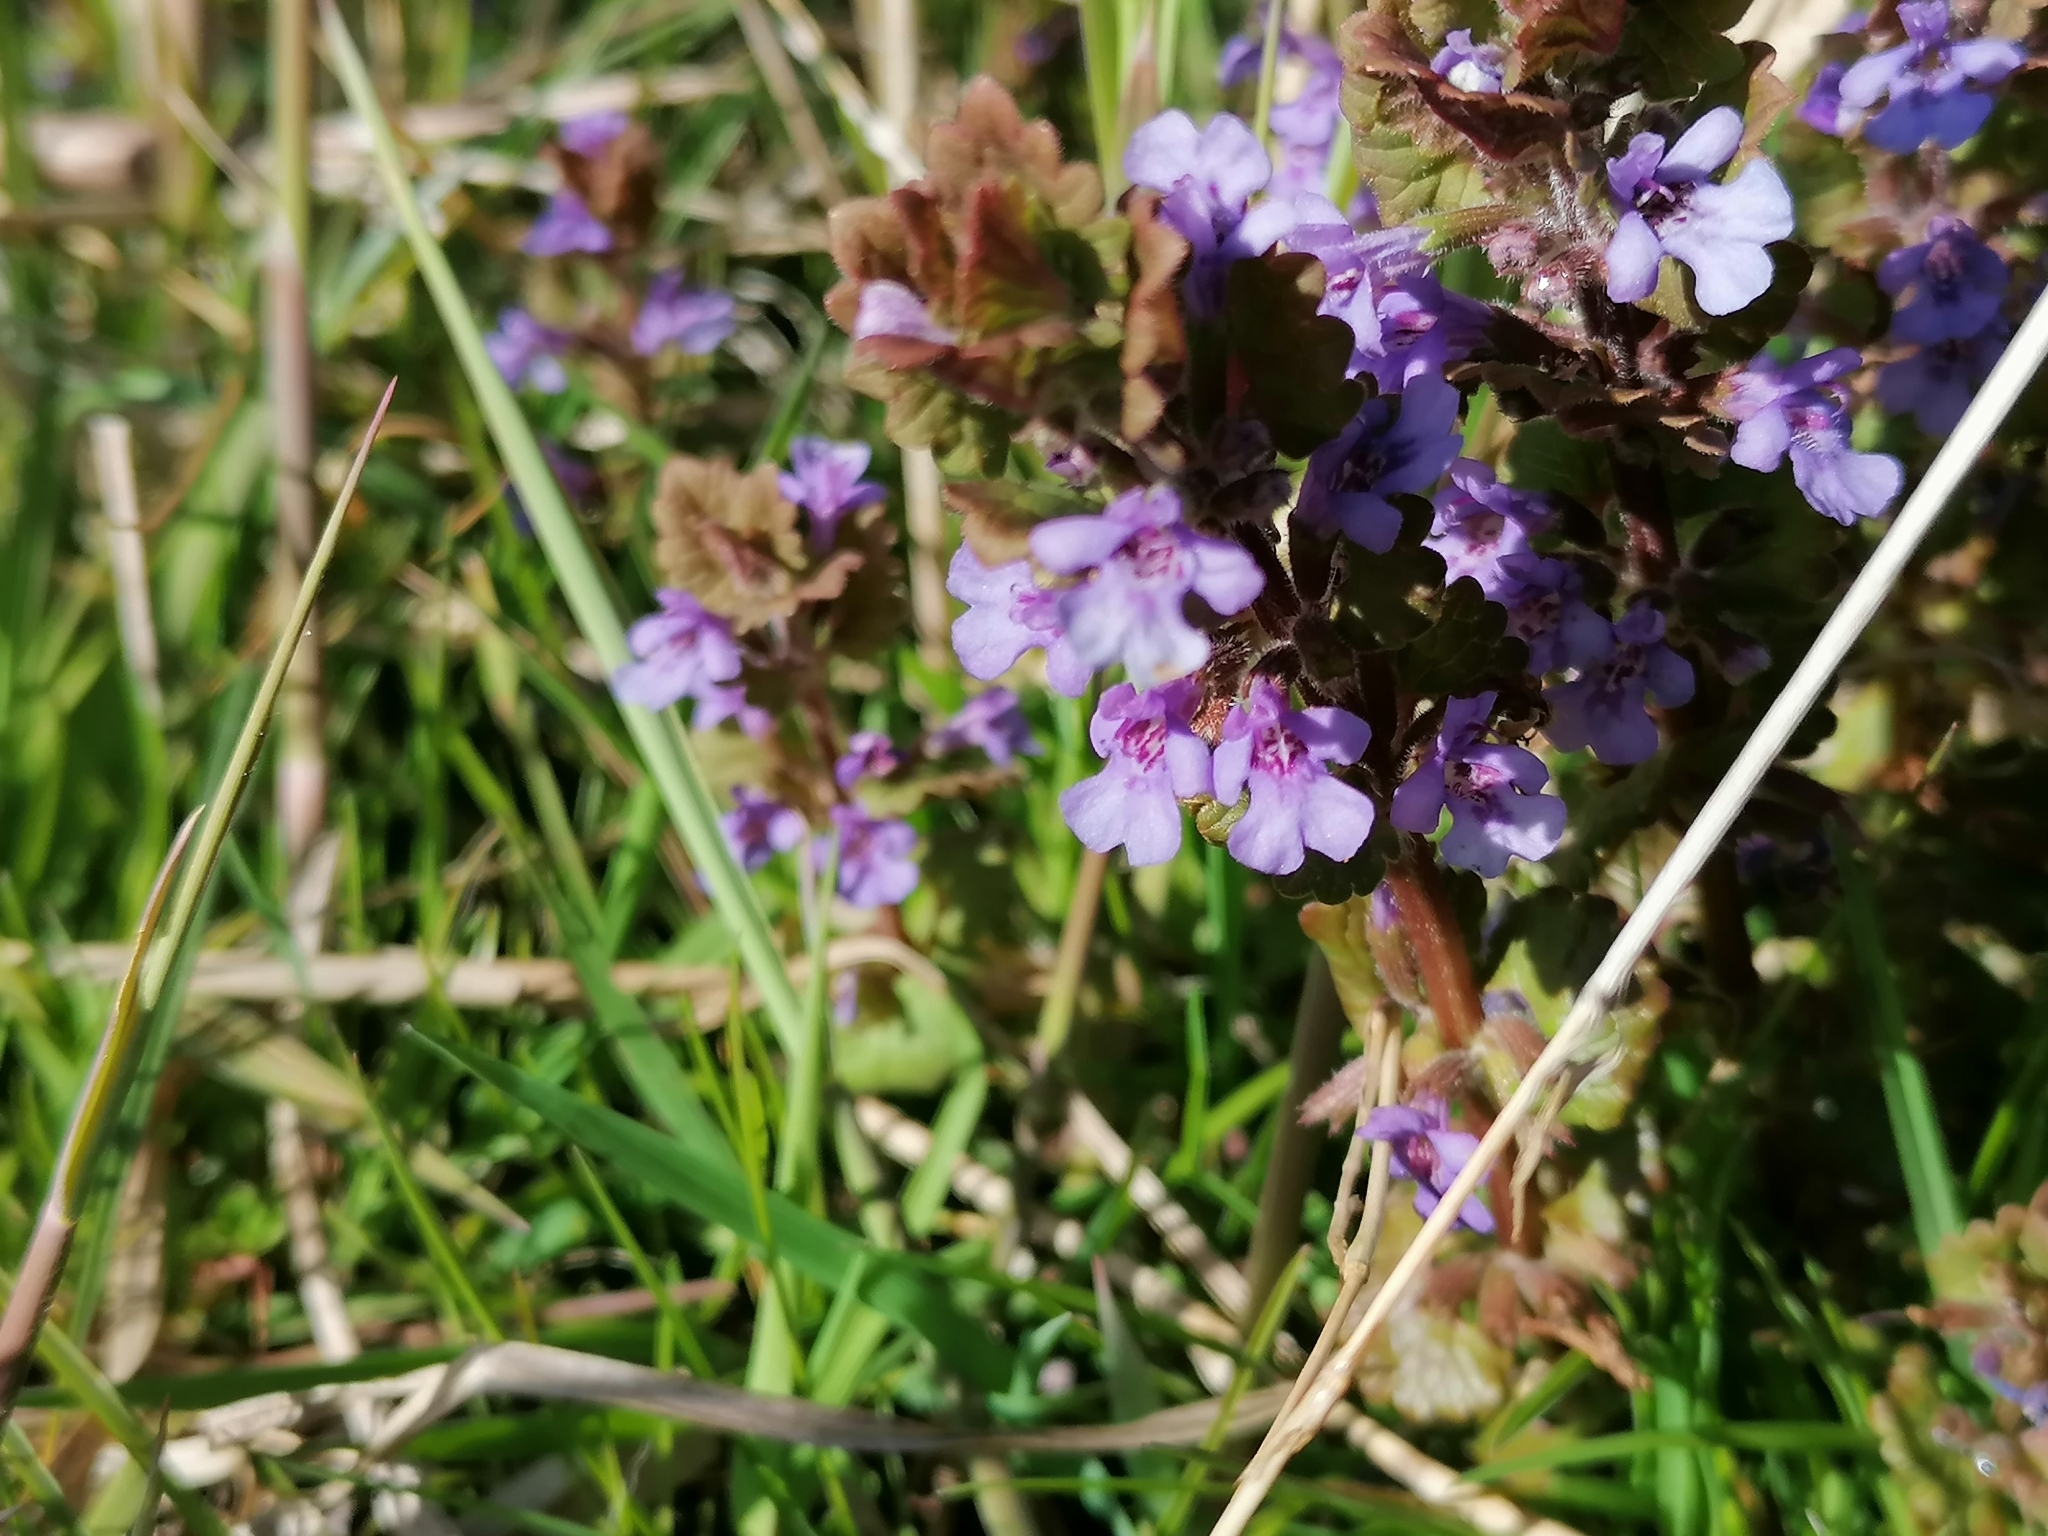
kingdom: Plantae
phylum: Tracheophyta
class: Magnoliopsida
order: Lamiales
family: Lamiaceae
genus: Glechoma
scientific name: Glechoma hederacea
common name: Ground ivy
